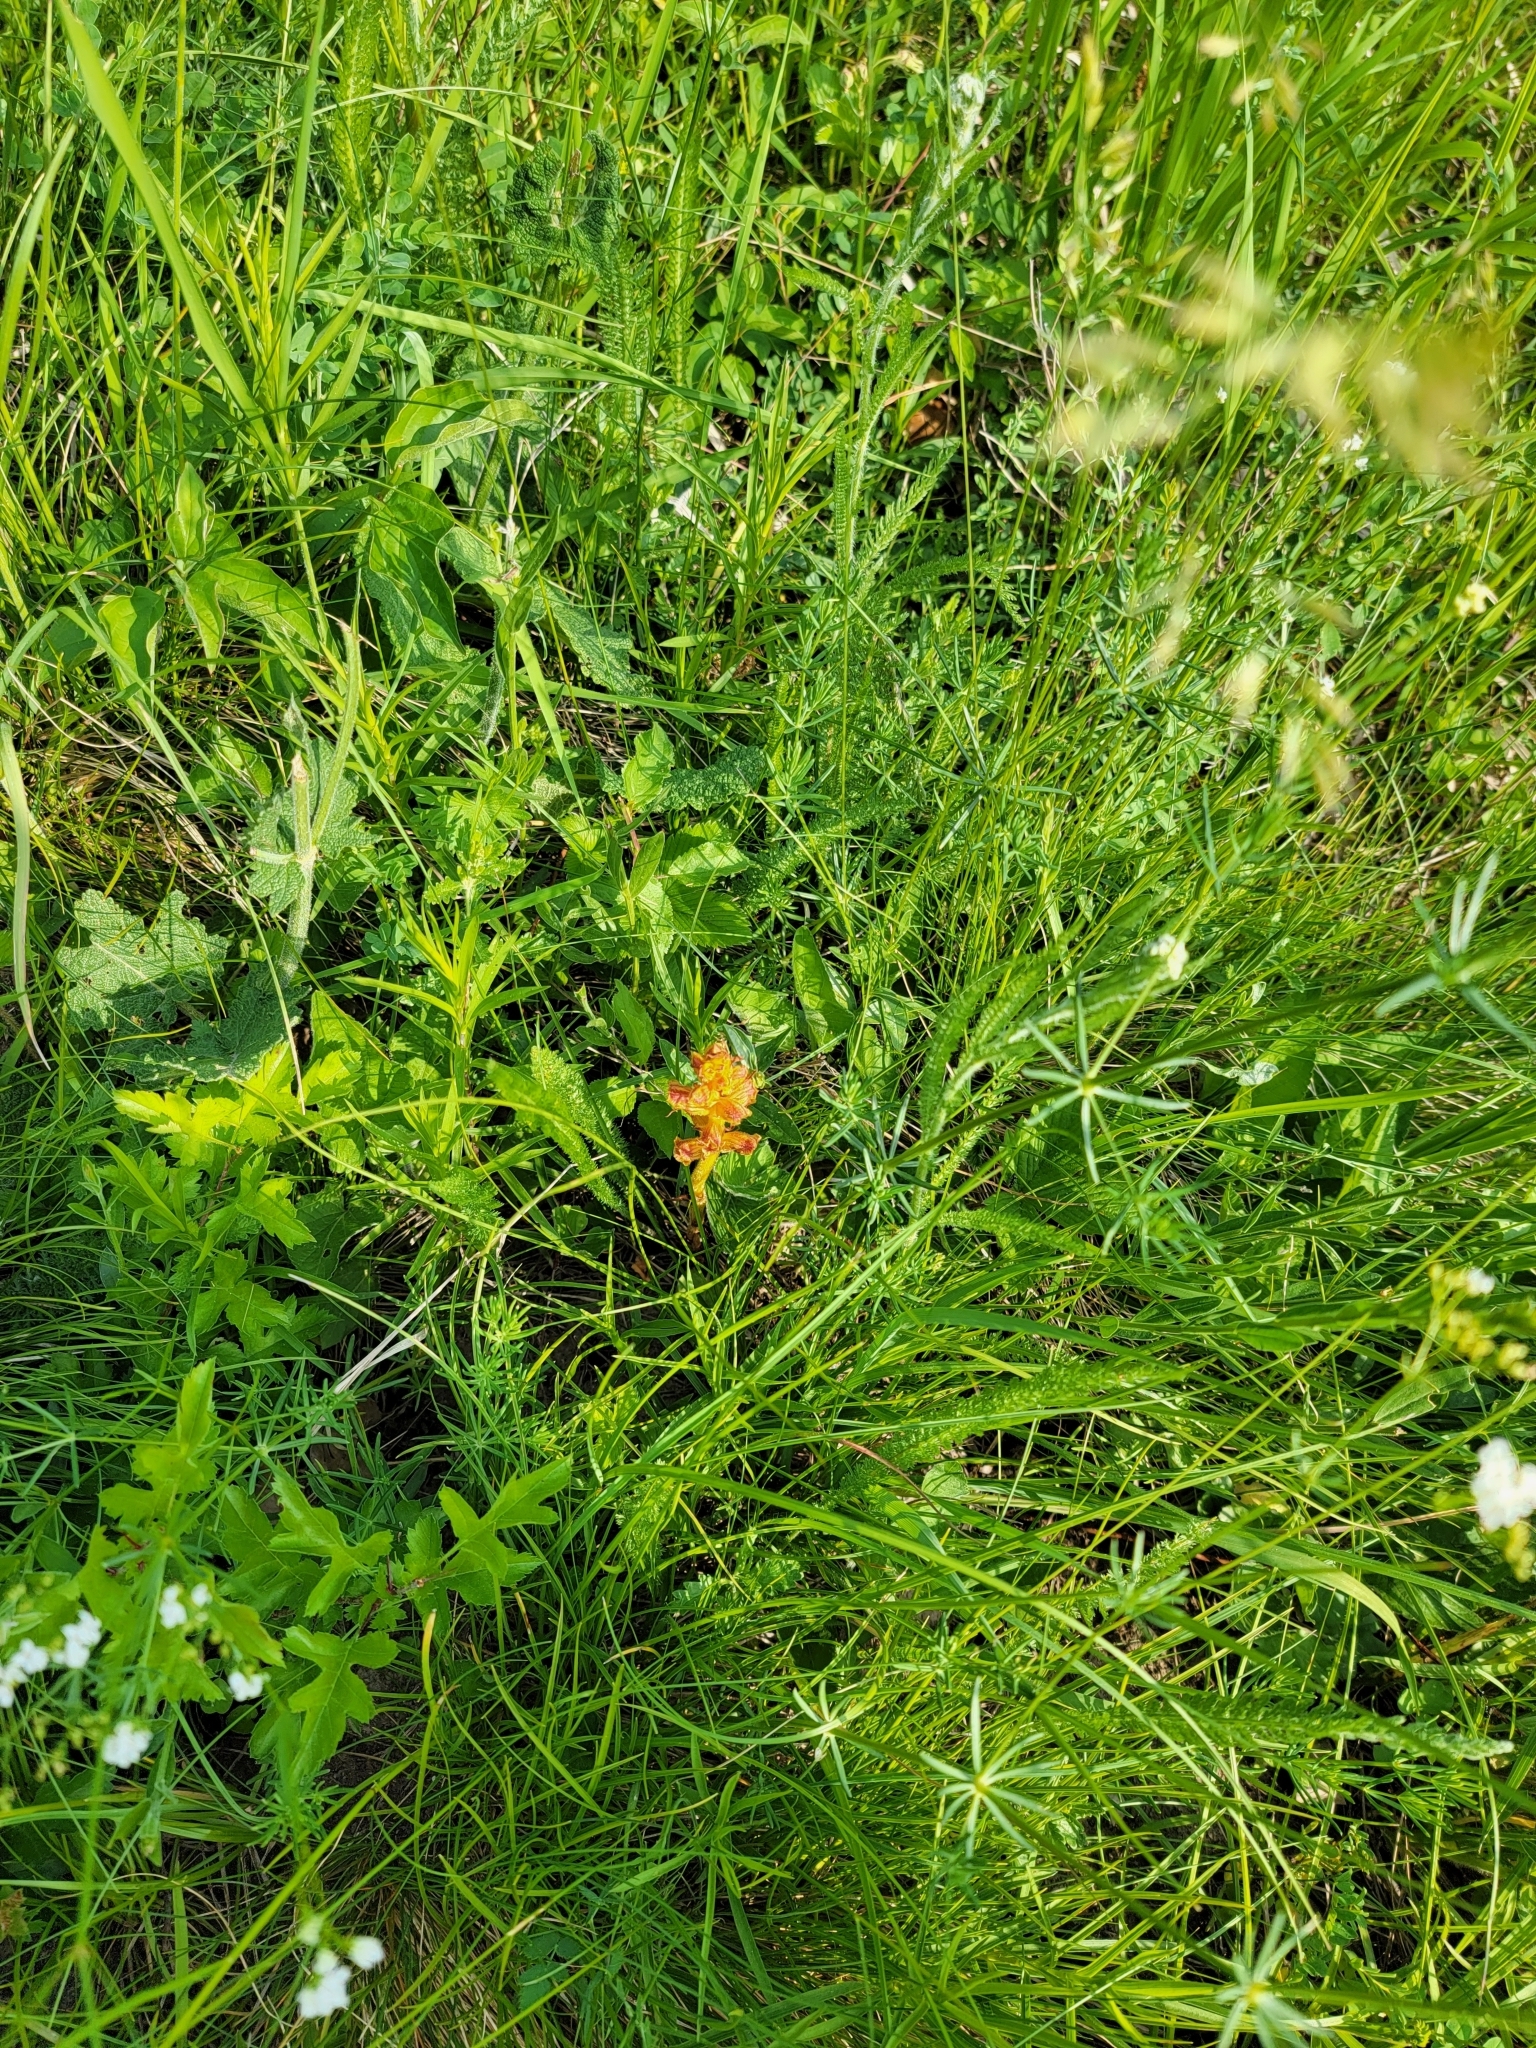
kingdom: Plantae
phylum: Tracheophyta
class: Magnoliopsida
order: Lamiales
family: Orobanchaceae
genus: Orobanche
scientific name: Orobanche gracilis
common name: Slender broomrape
